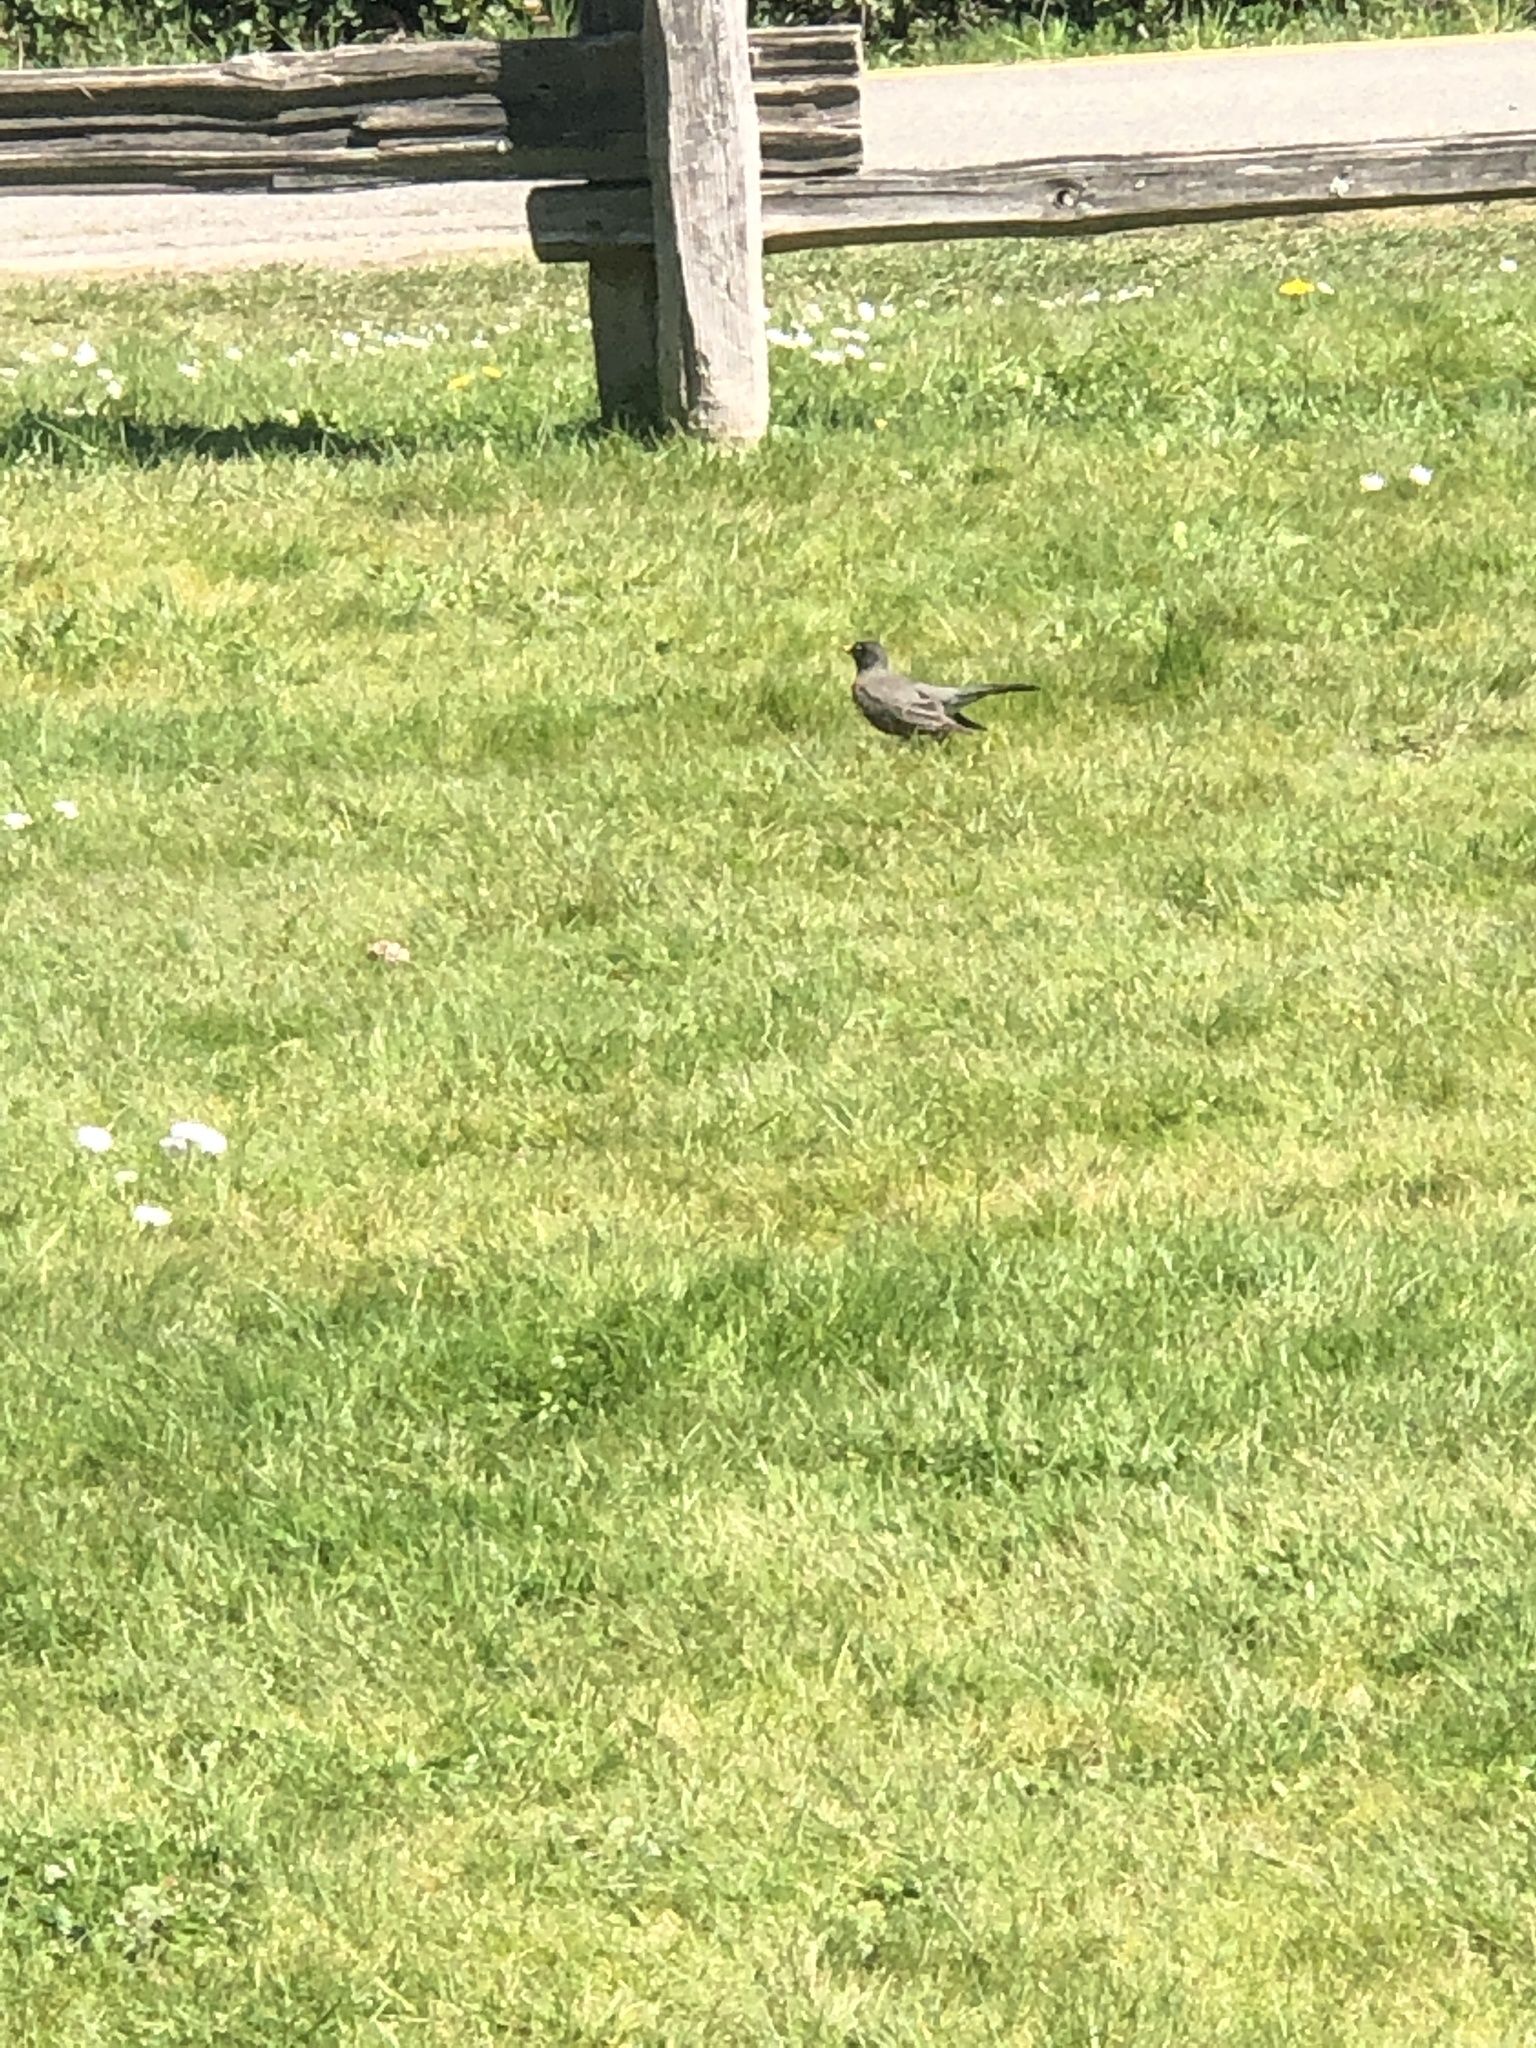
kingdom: Animalia
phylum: Chordata
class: Aves
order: Passeriformes
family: Turdidae
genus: Turdus
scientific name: Turdus migratorius
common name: American robin
